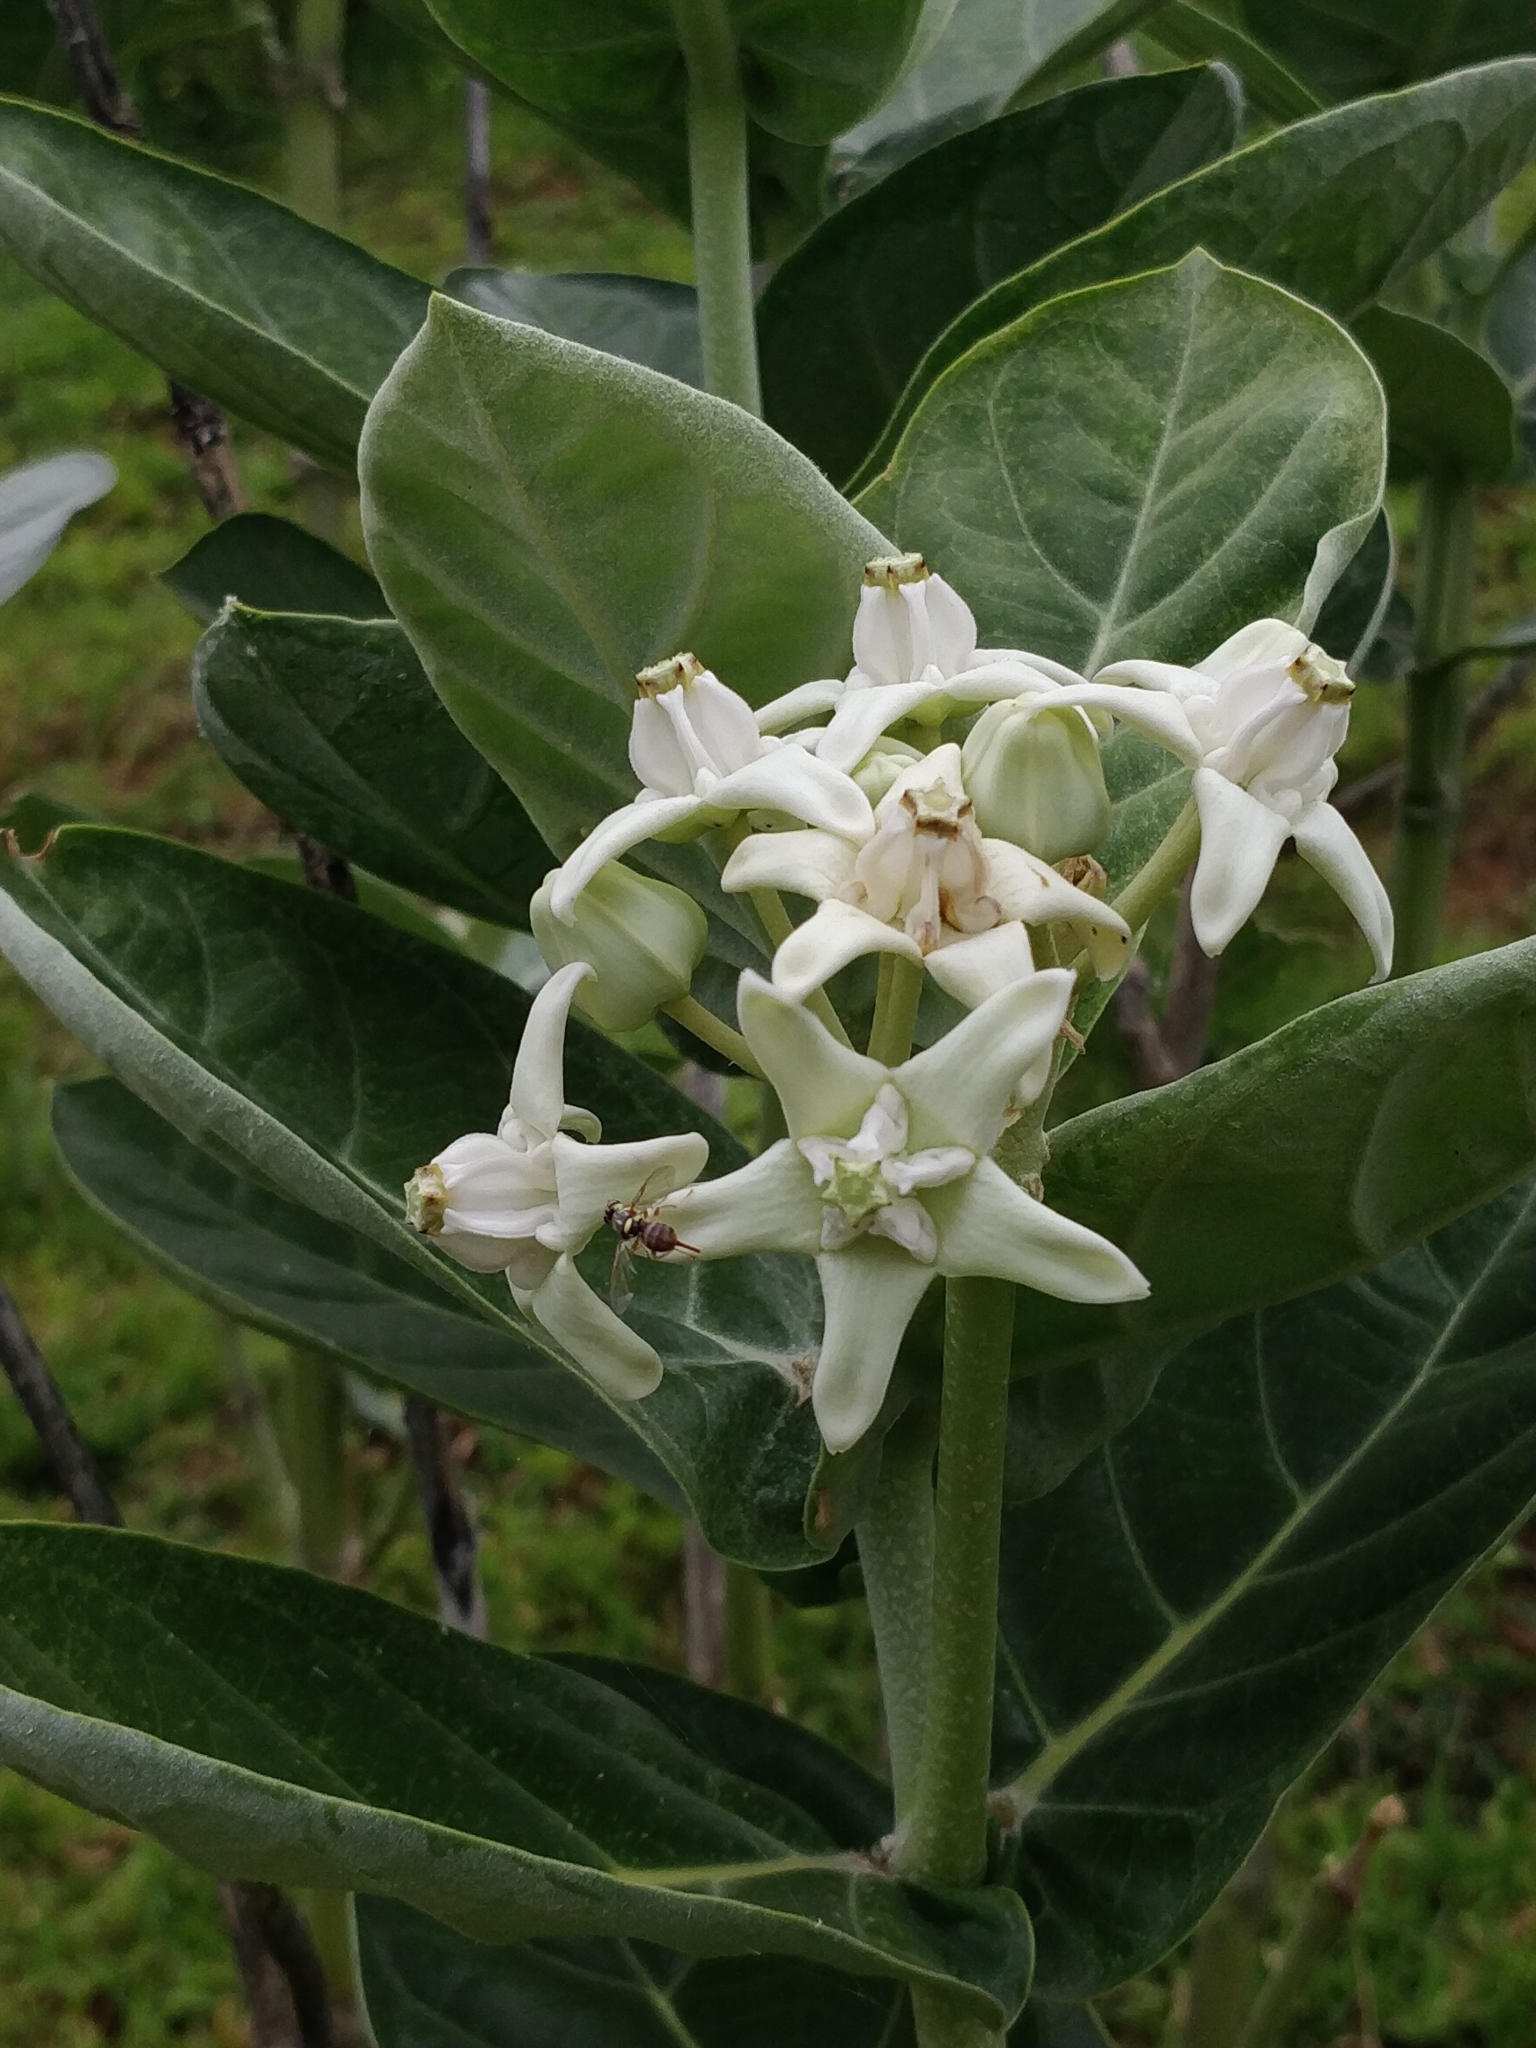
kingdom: Plantae
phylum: Tracheophyta
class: Magnoliopsida
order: Gentianales
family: Apocynaceae
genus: Calotropis
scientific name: Calotropis gigantea
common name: Crown flower
